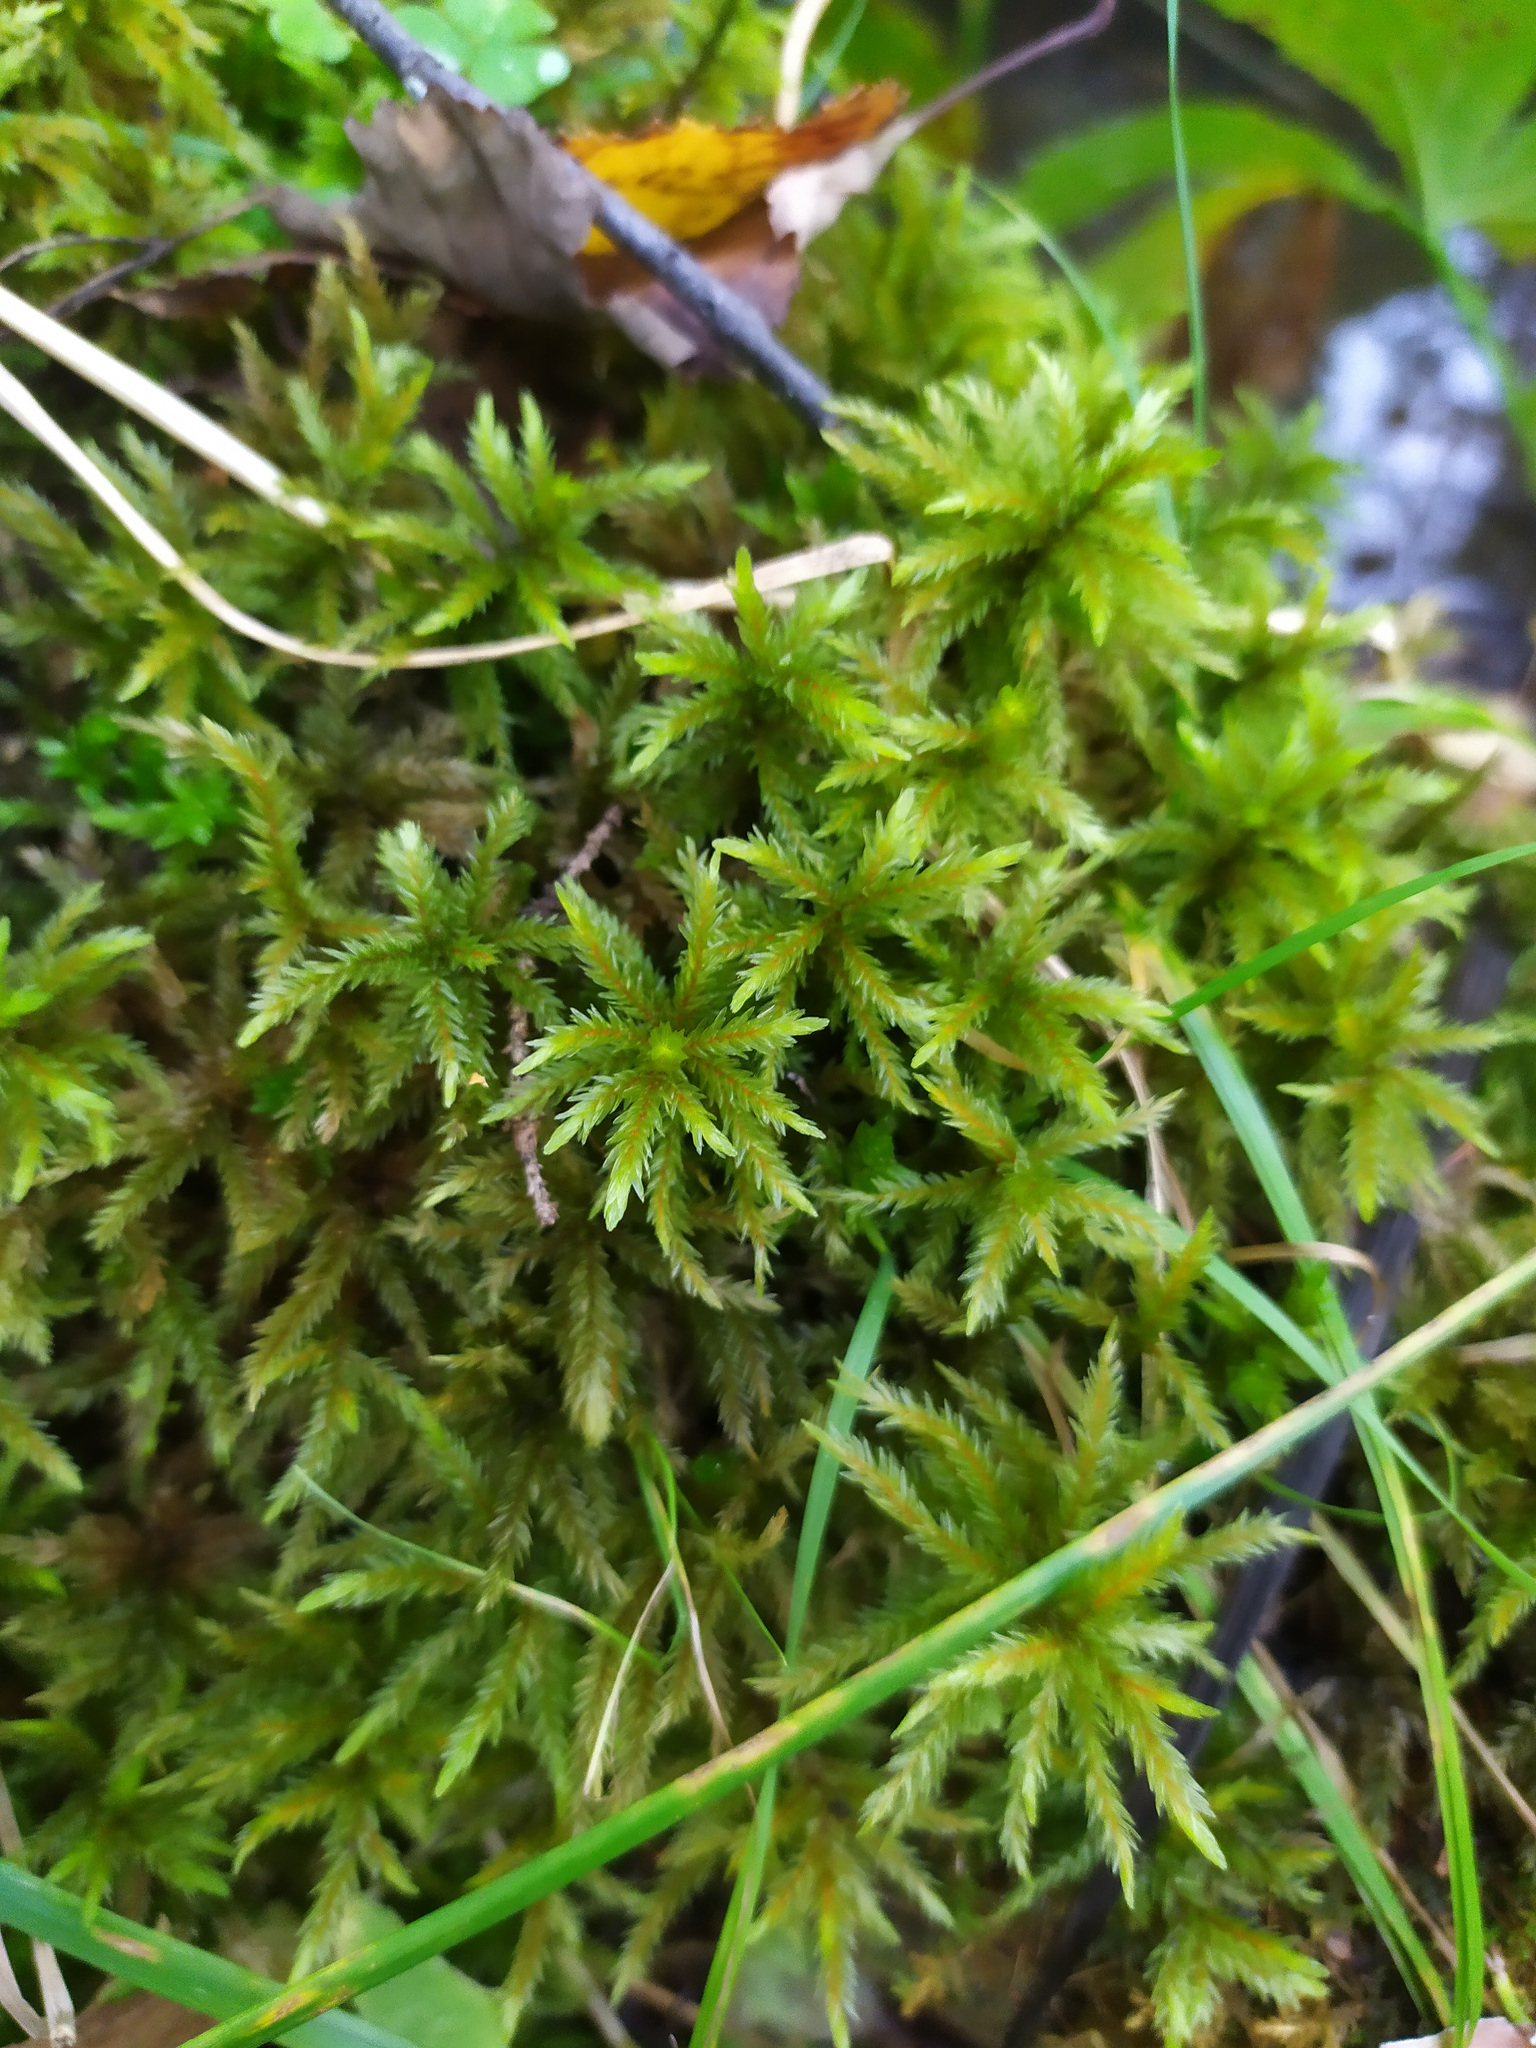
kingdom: Plantae
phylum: Bryophyta
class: Bryopsida
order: Hypnales
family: Climaciaceae
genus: Climacium
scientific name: Climacium dendroides
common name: Northern tree moss
